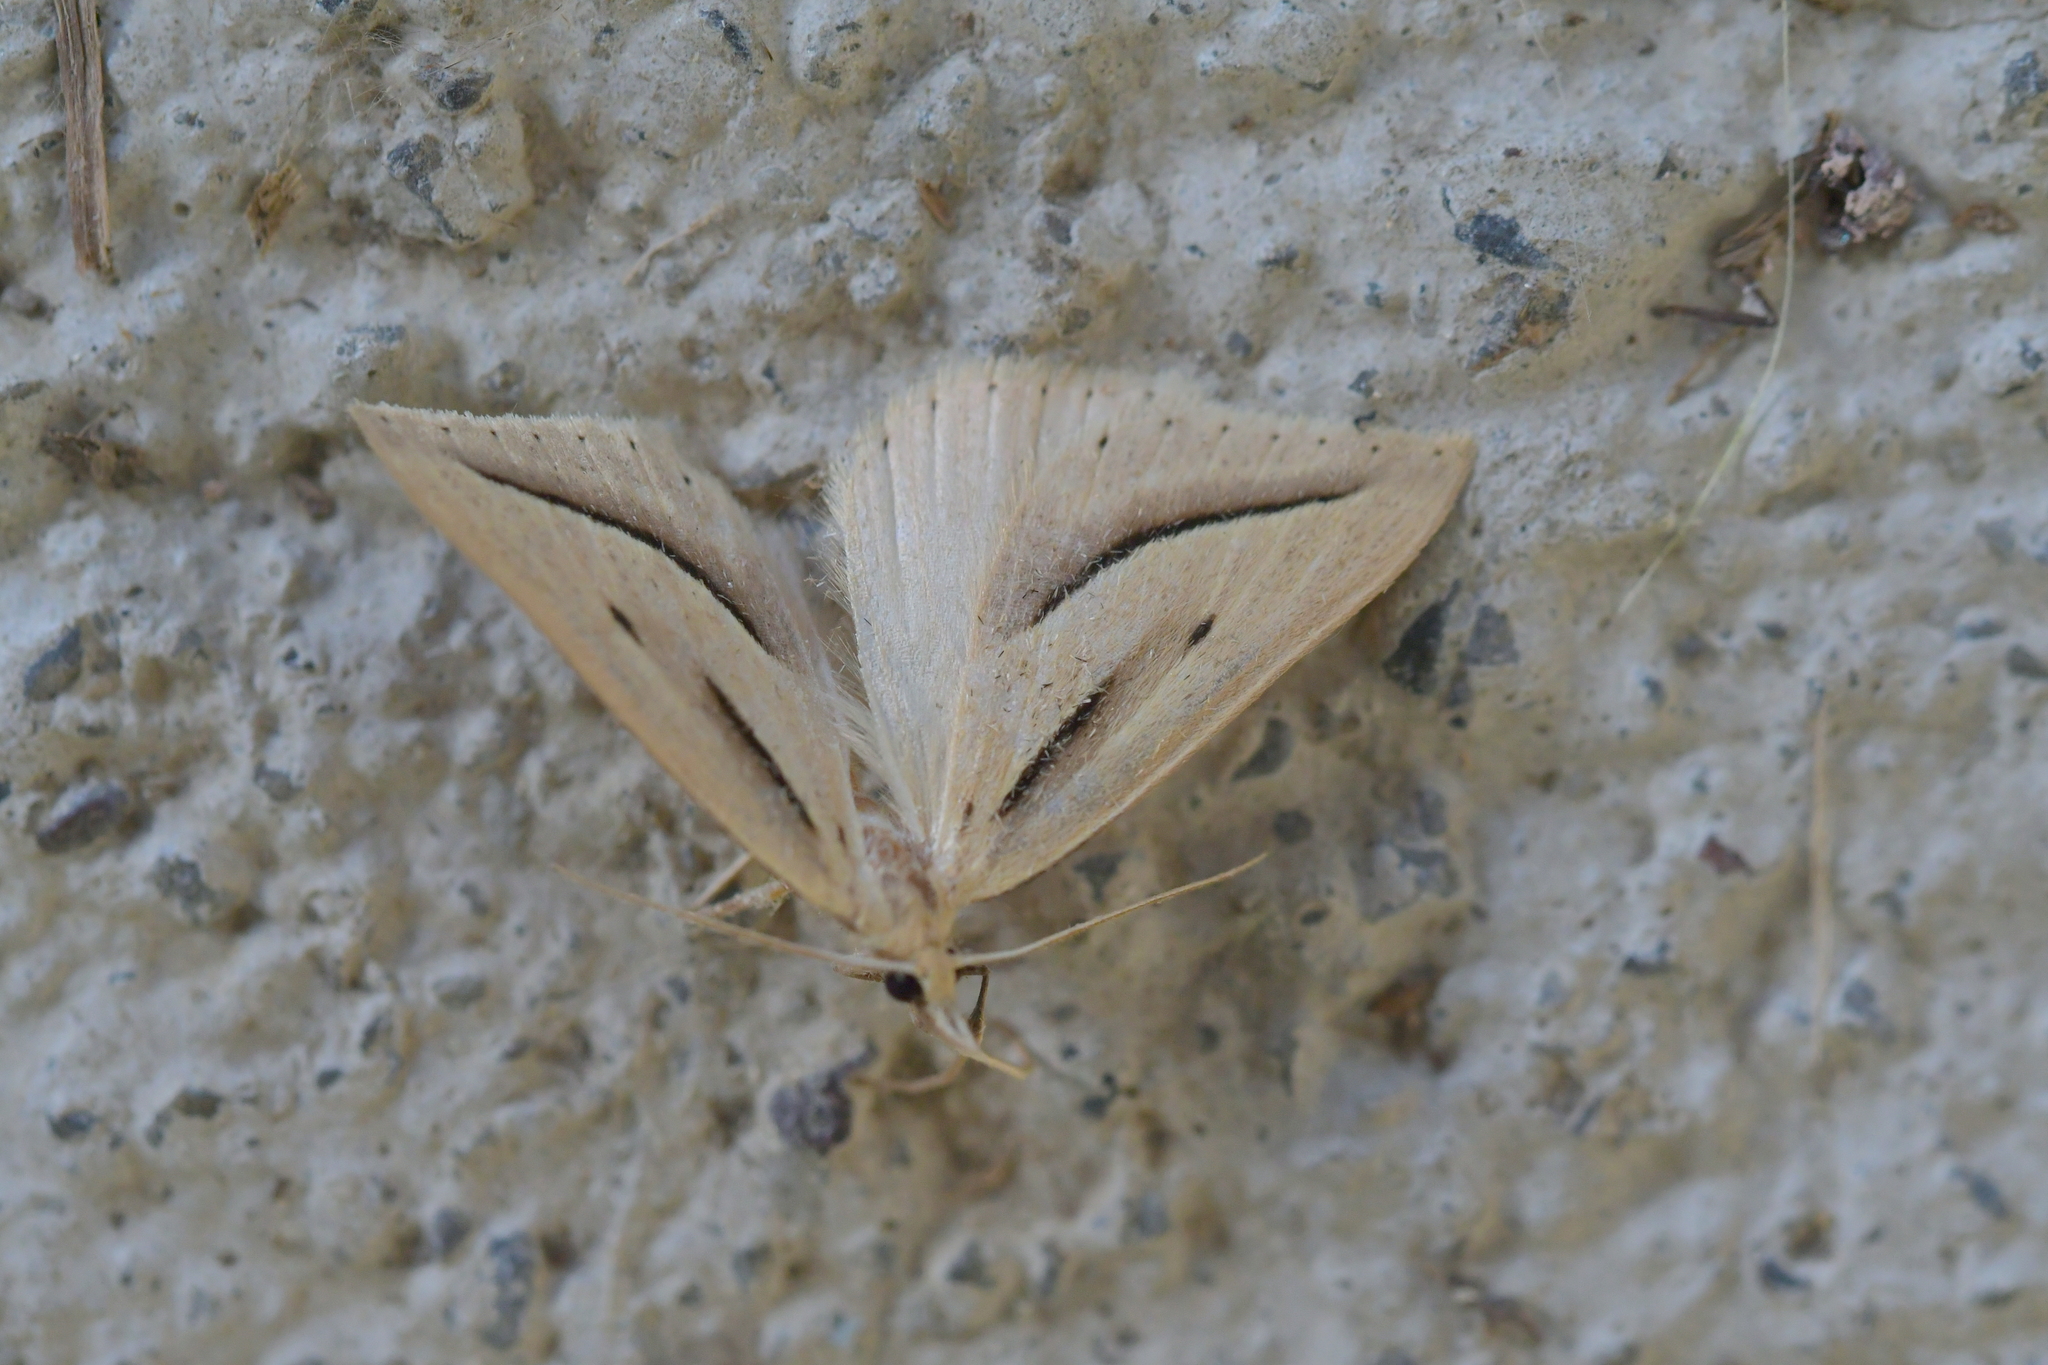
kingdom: Animalia
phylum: Arthropoda
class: Insecta
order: Lepidoptera
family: Geometridae
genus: Samana
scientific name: Samana falcatella
